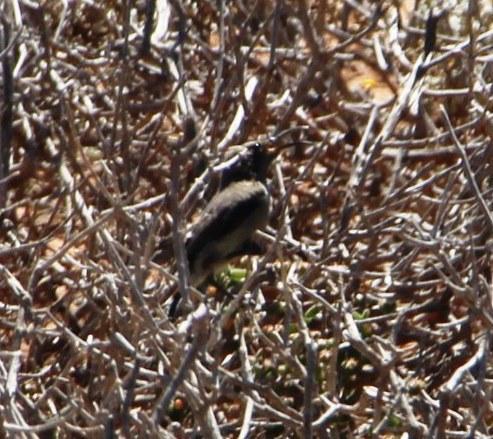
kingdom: Animalia
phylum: Chordata
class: Aves
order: Passeriformes
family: Nectariniidae
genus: Cinnyris
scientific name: Cinnyris fuscus
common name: Dusky sunbird
